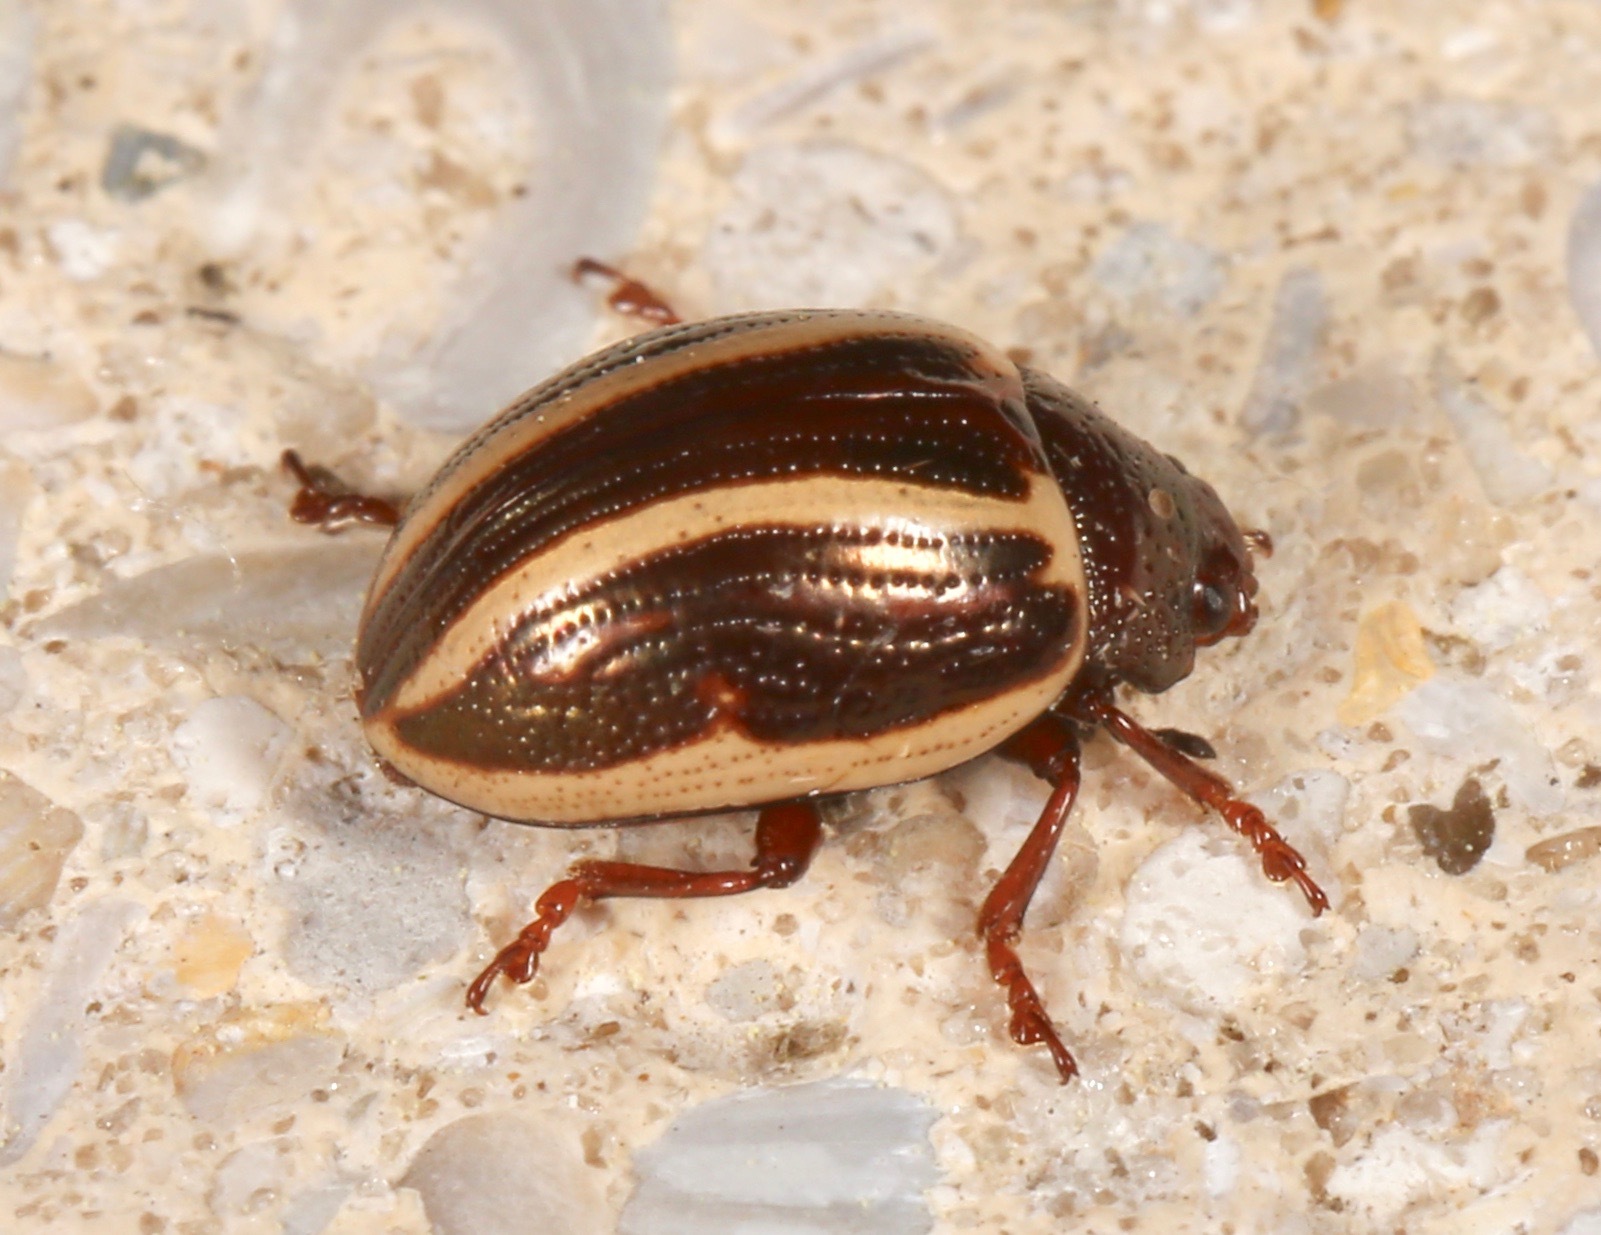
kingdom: Animalia
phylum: Arthropoda
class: Insecta
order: Coleoptera
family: Chrysomelidae
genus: Calligrapha
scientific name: Calligrapha bidenticola
